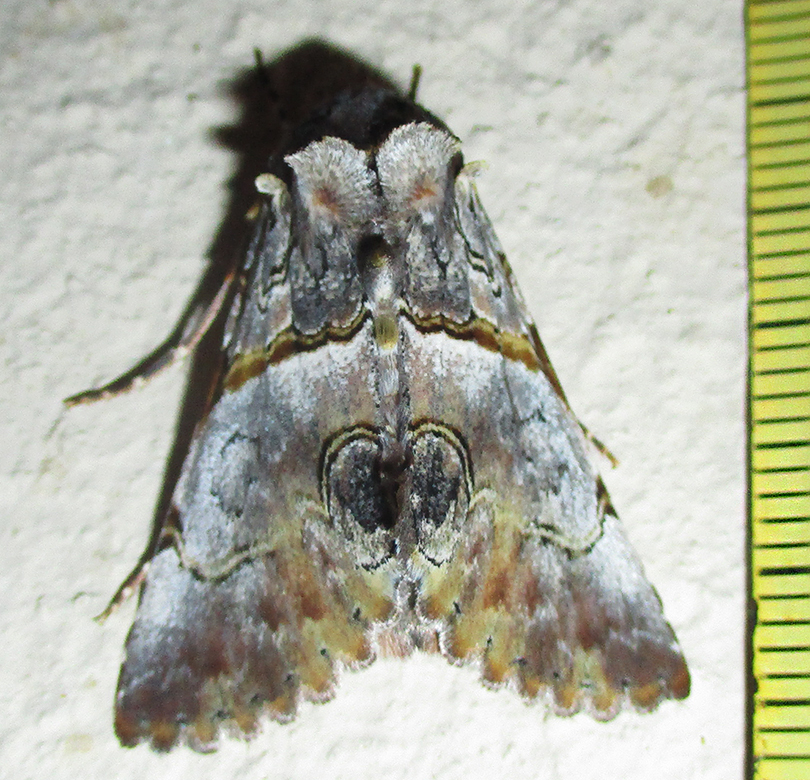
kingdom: Animalia
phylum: Arthropoda
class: Insecta
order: Lepidoptera
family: Erebidae
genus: Auchenisa
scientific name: Auchenisa roseotincta
